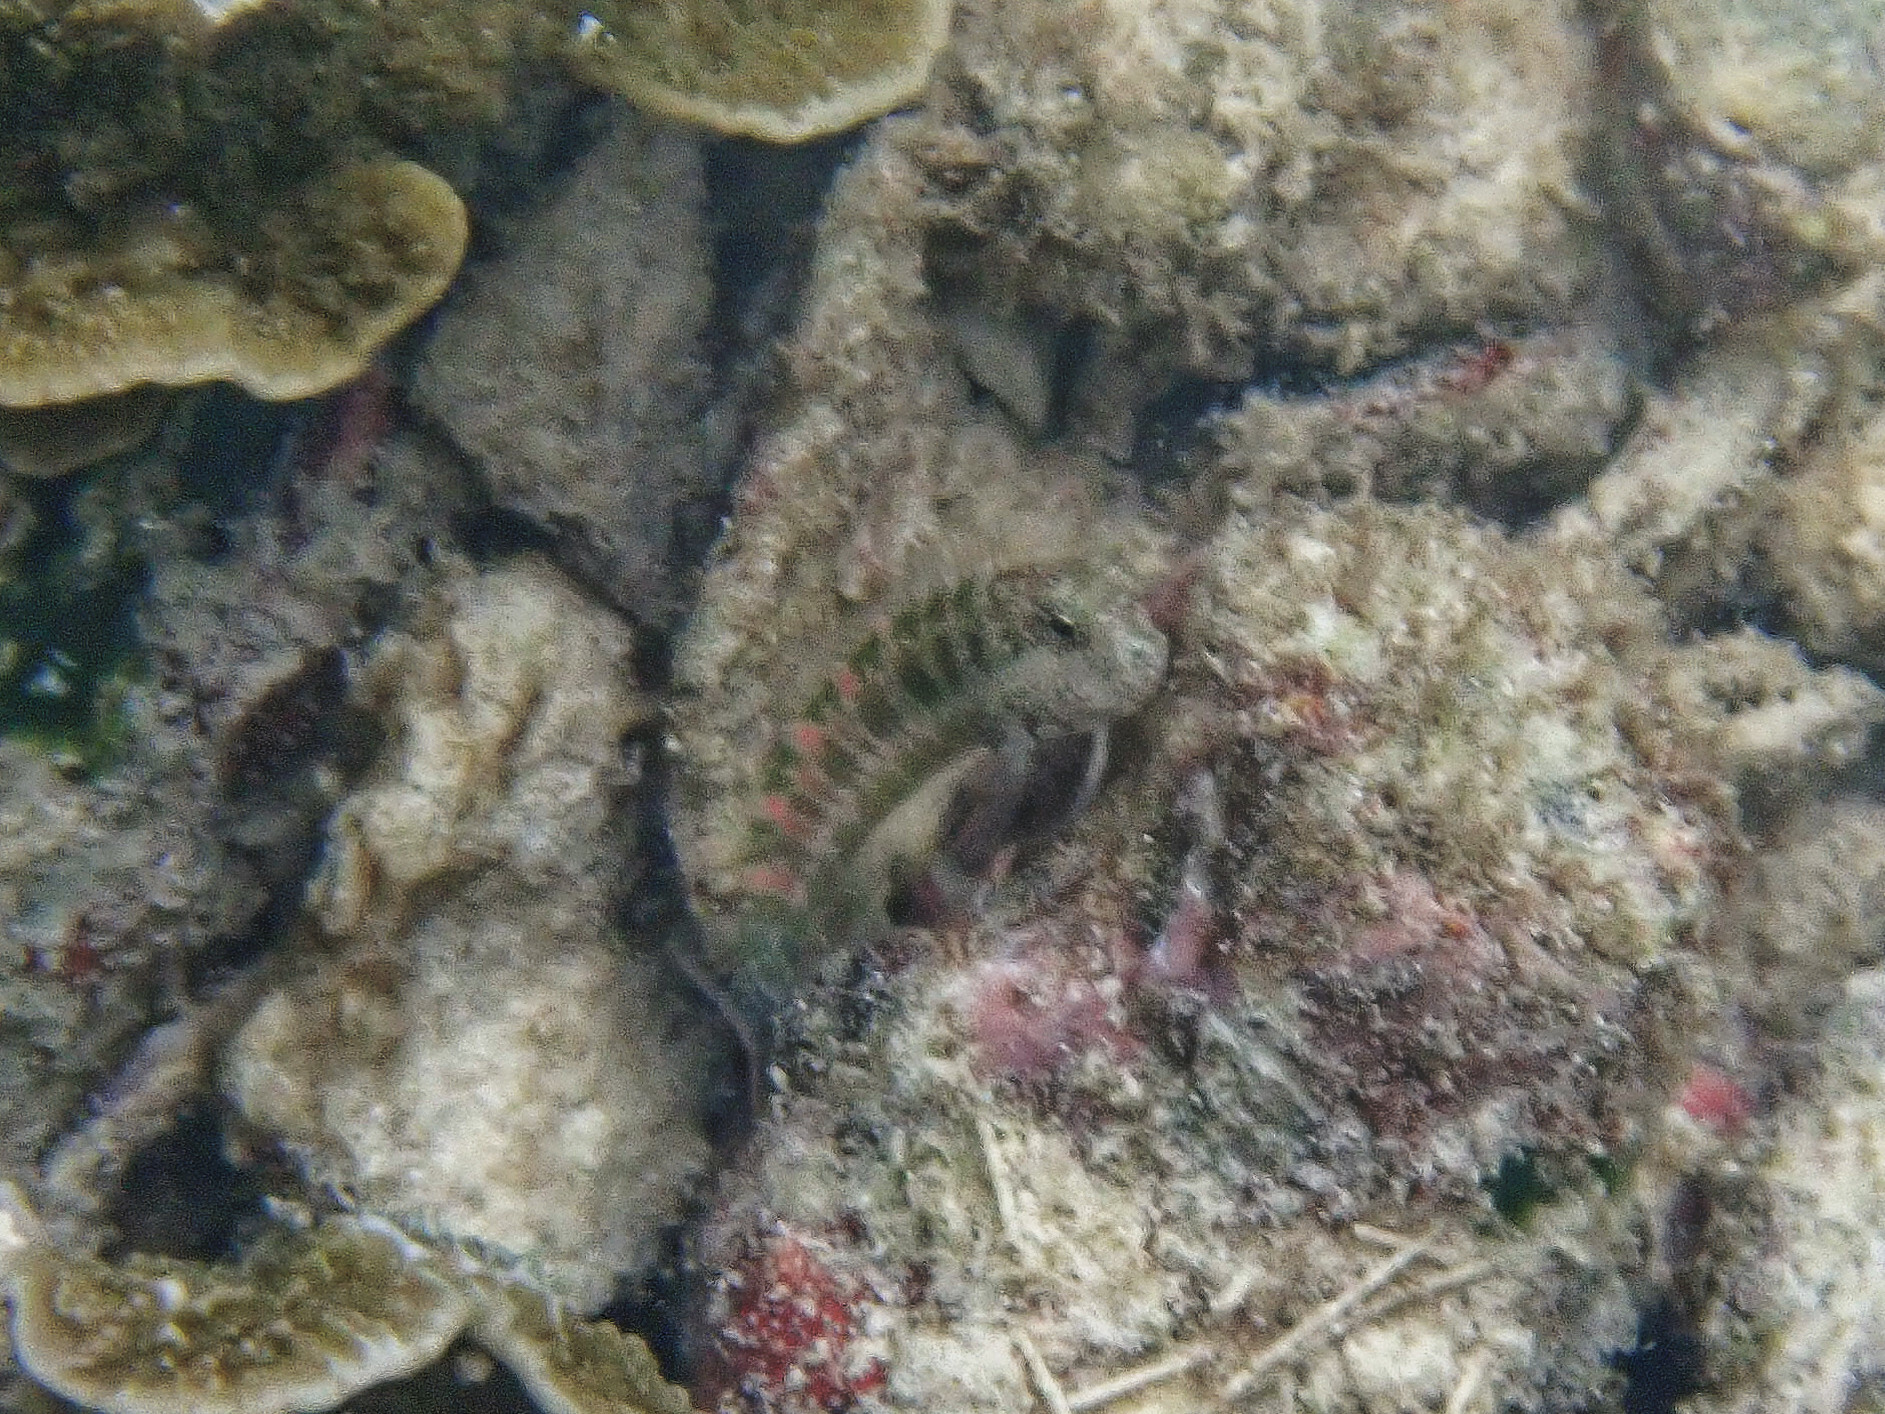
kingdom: Animalia
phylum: Chordata
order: Perciformes
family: Blenniidae
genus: Salarias
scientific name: Salarias guttatus
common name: Breast-spot blenny
